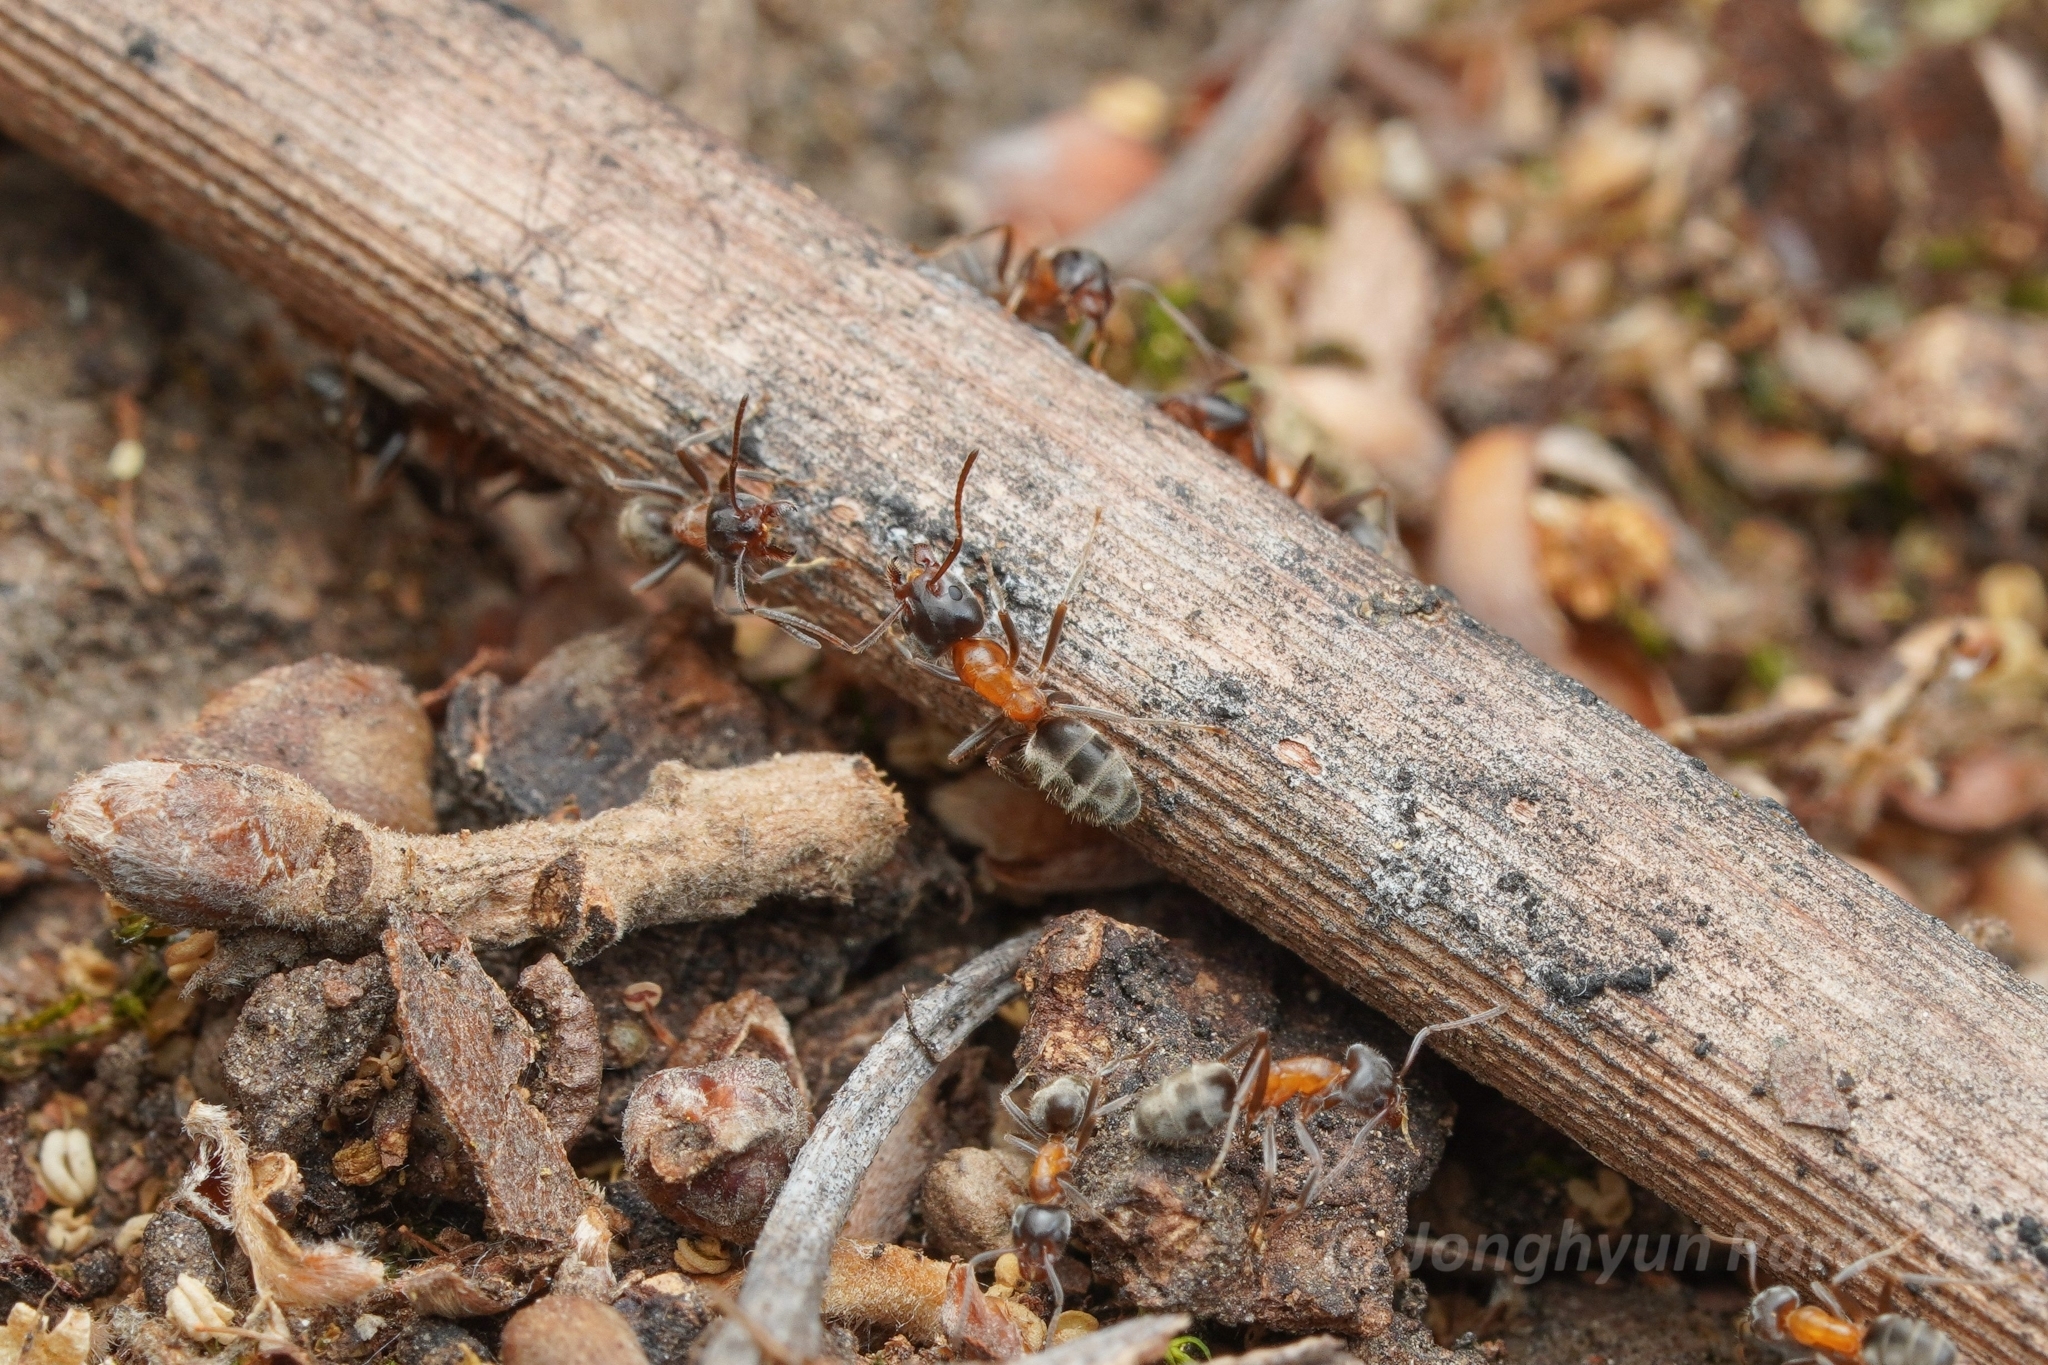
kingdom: Animalia
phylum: Arthropoda
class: Insecta
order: Hymenoptera
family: Formicidae
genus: Liometopum
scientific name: Liometopum occidentale
